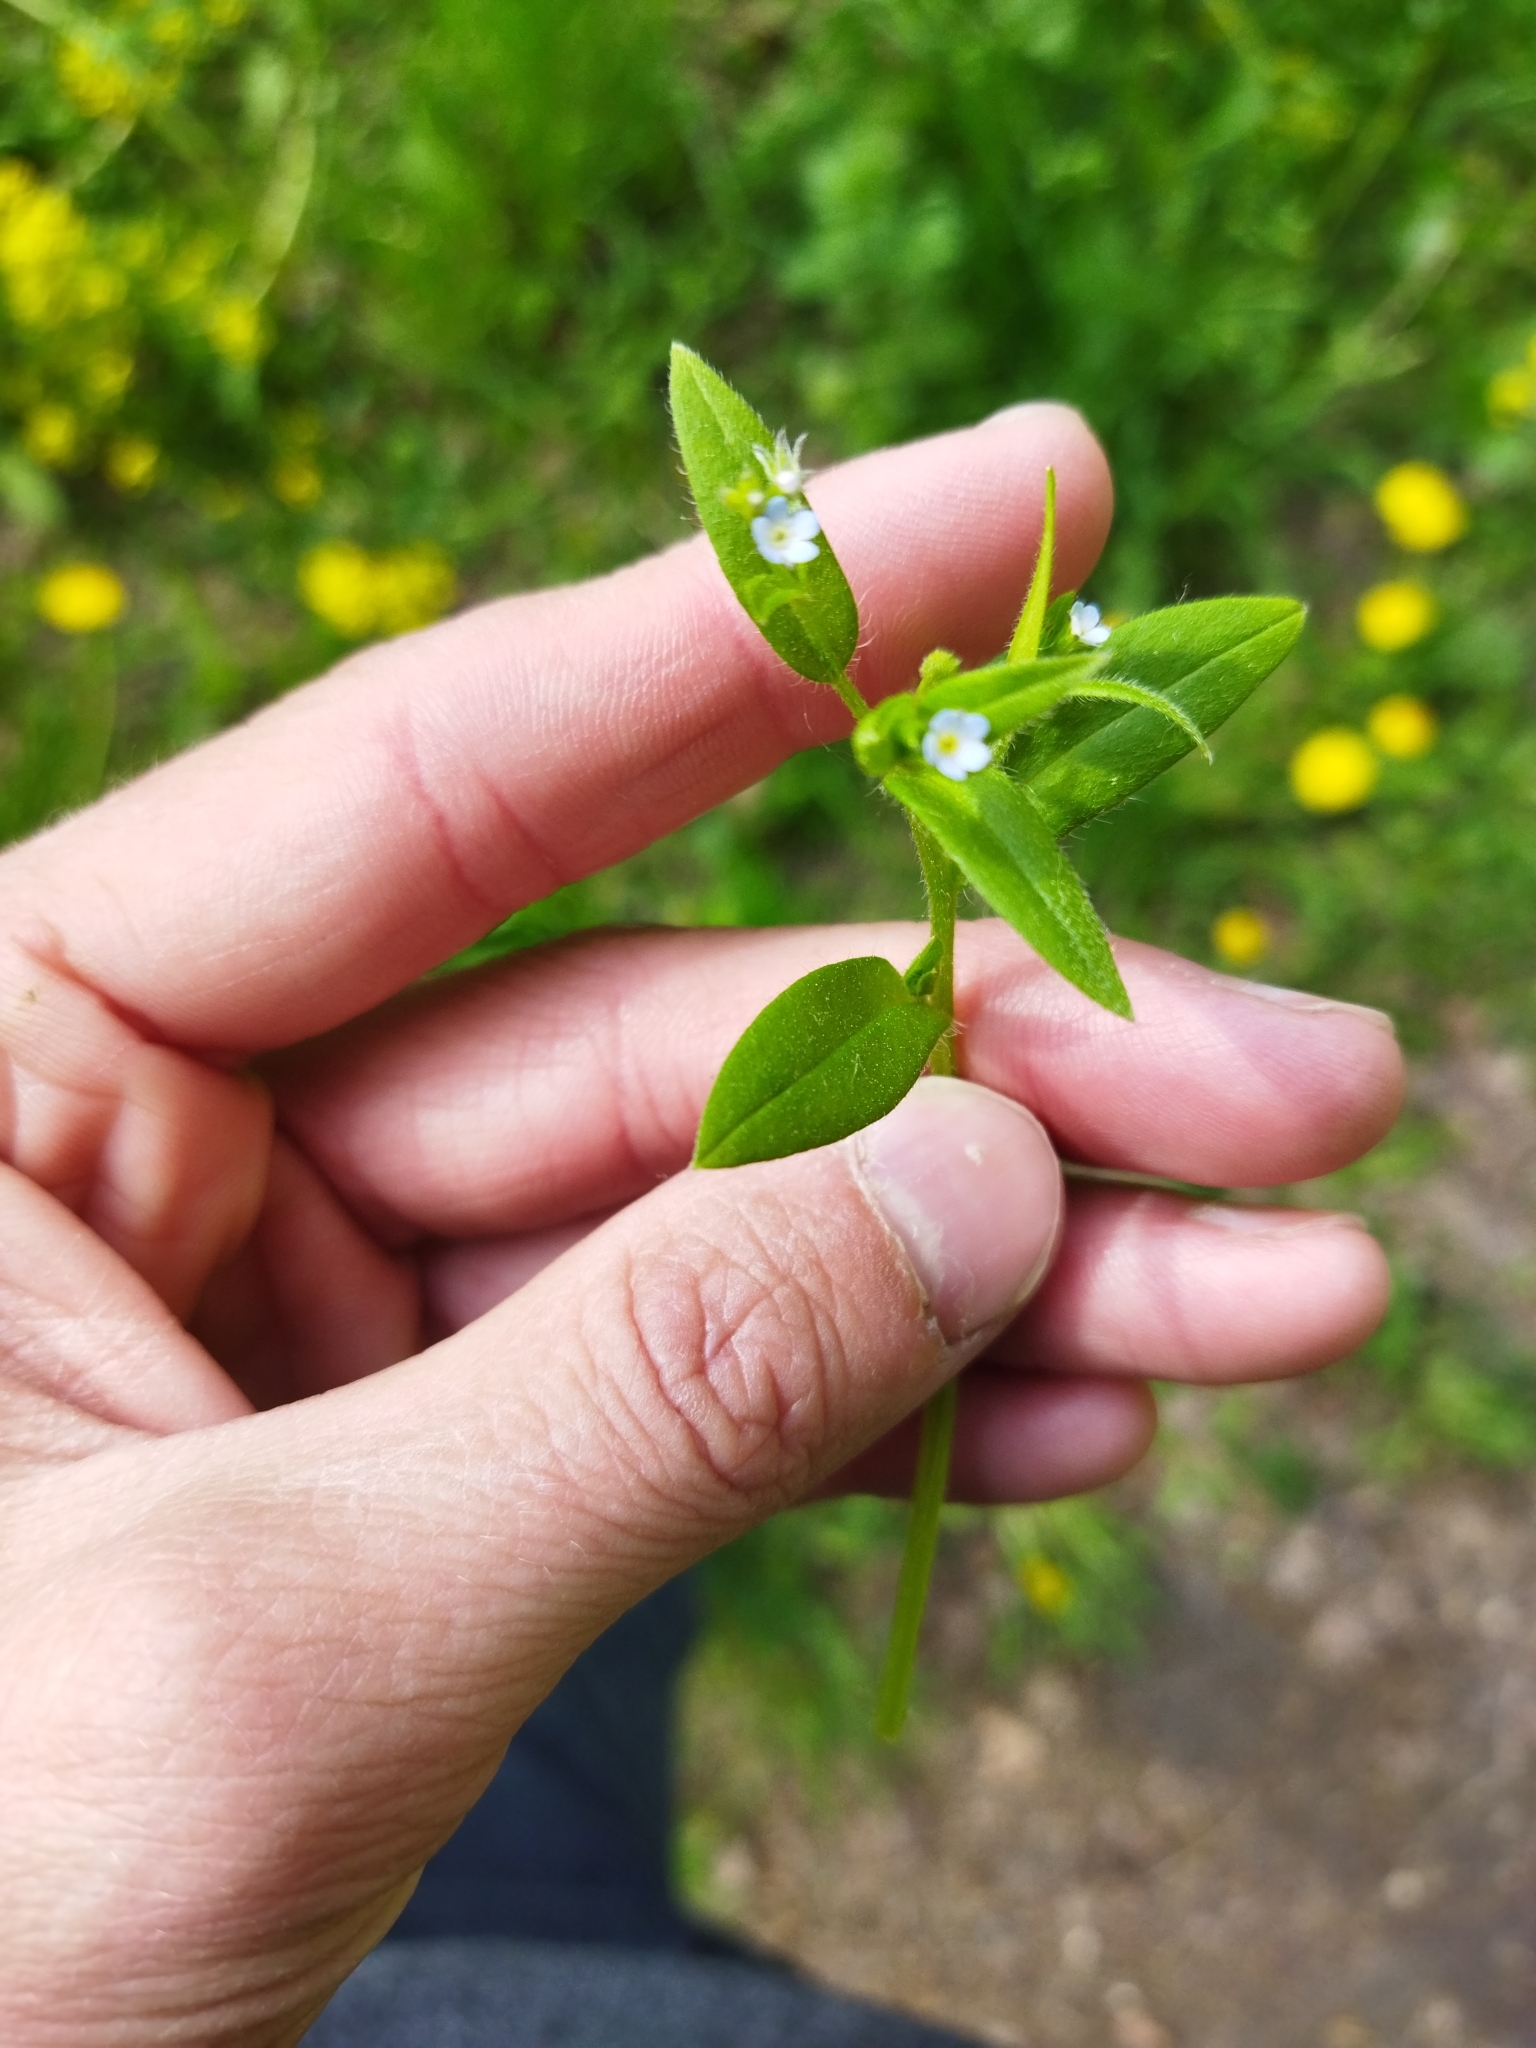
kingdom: Plantae
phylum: Tracheophyta
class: Magnoliopsida
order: Boraginales
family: Boraginaceae
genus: Myosotis
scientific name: Myosotis sparsiflora
